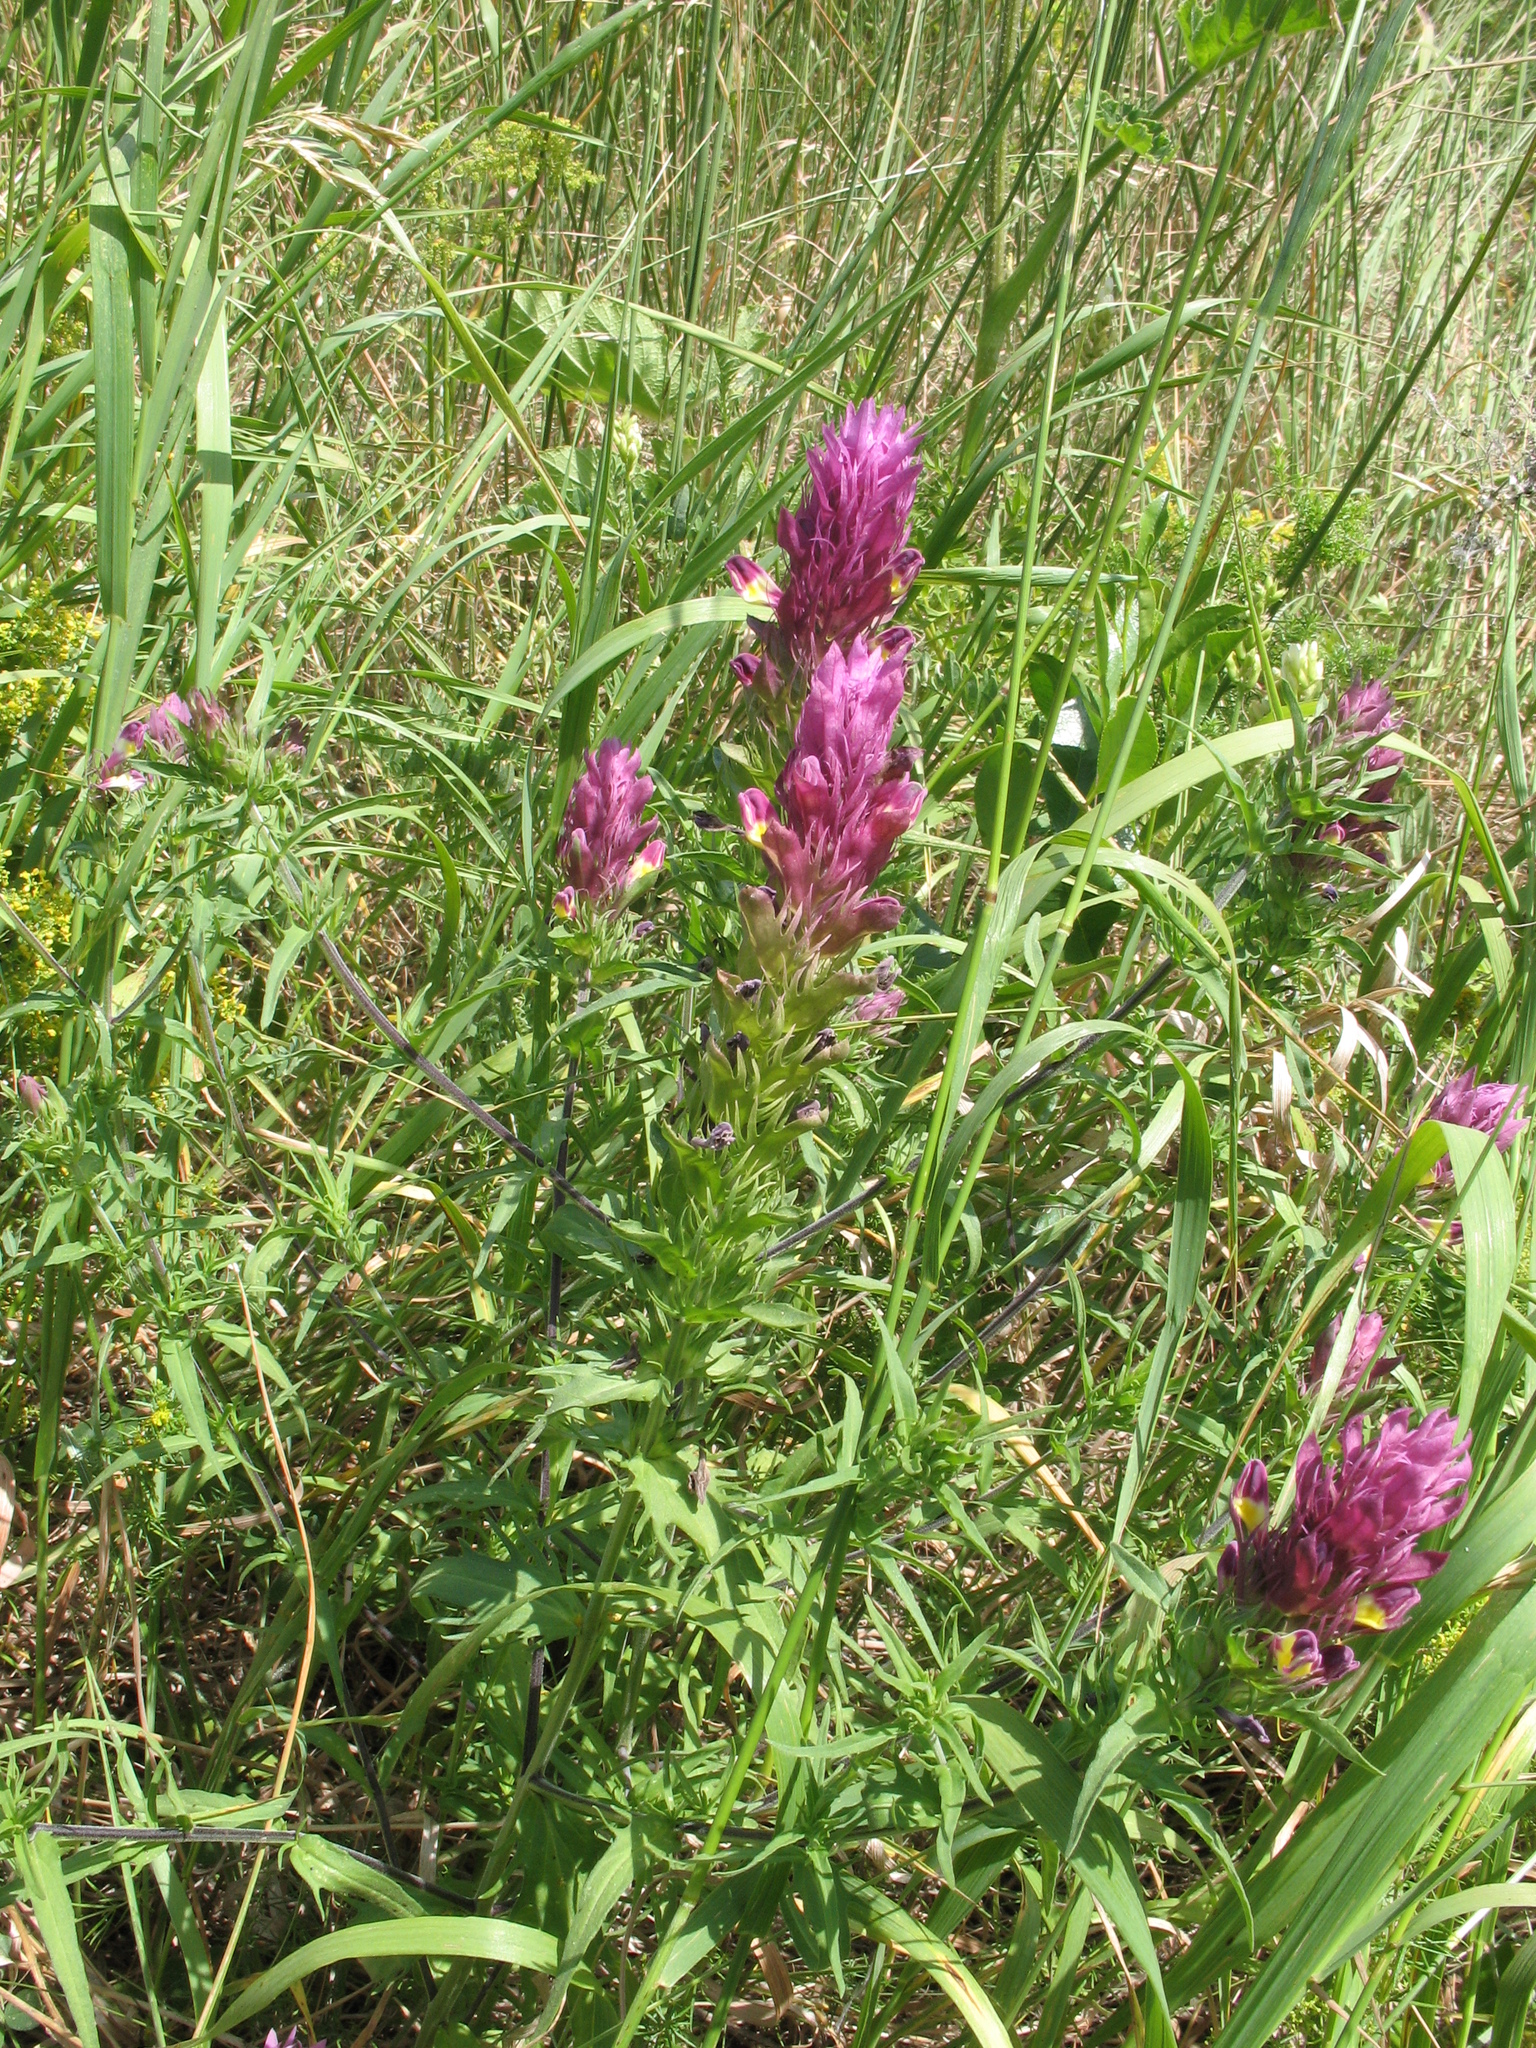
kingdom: Plantae
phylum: Tracheophyta
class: Magnoliopsida
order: Lamiales
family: Orobanchaceae
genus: Melampyrum
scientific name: Melampyrum arvense
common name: Field cow-wheat
